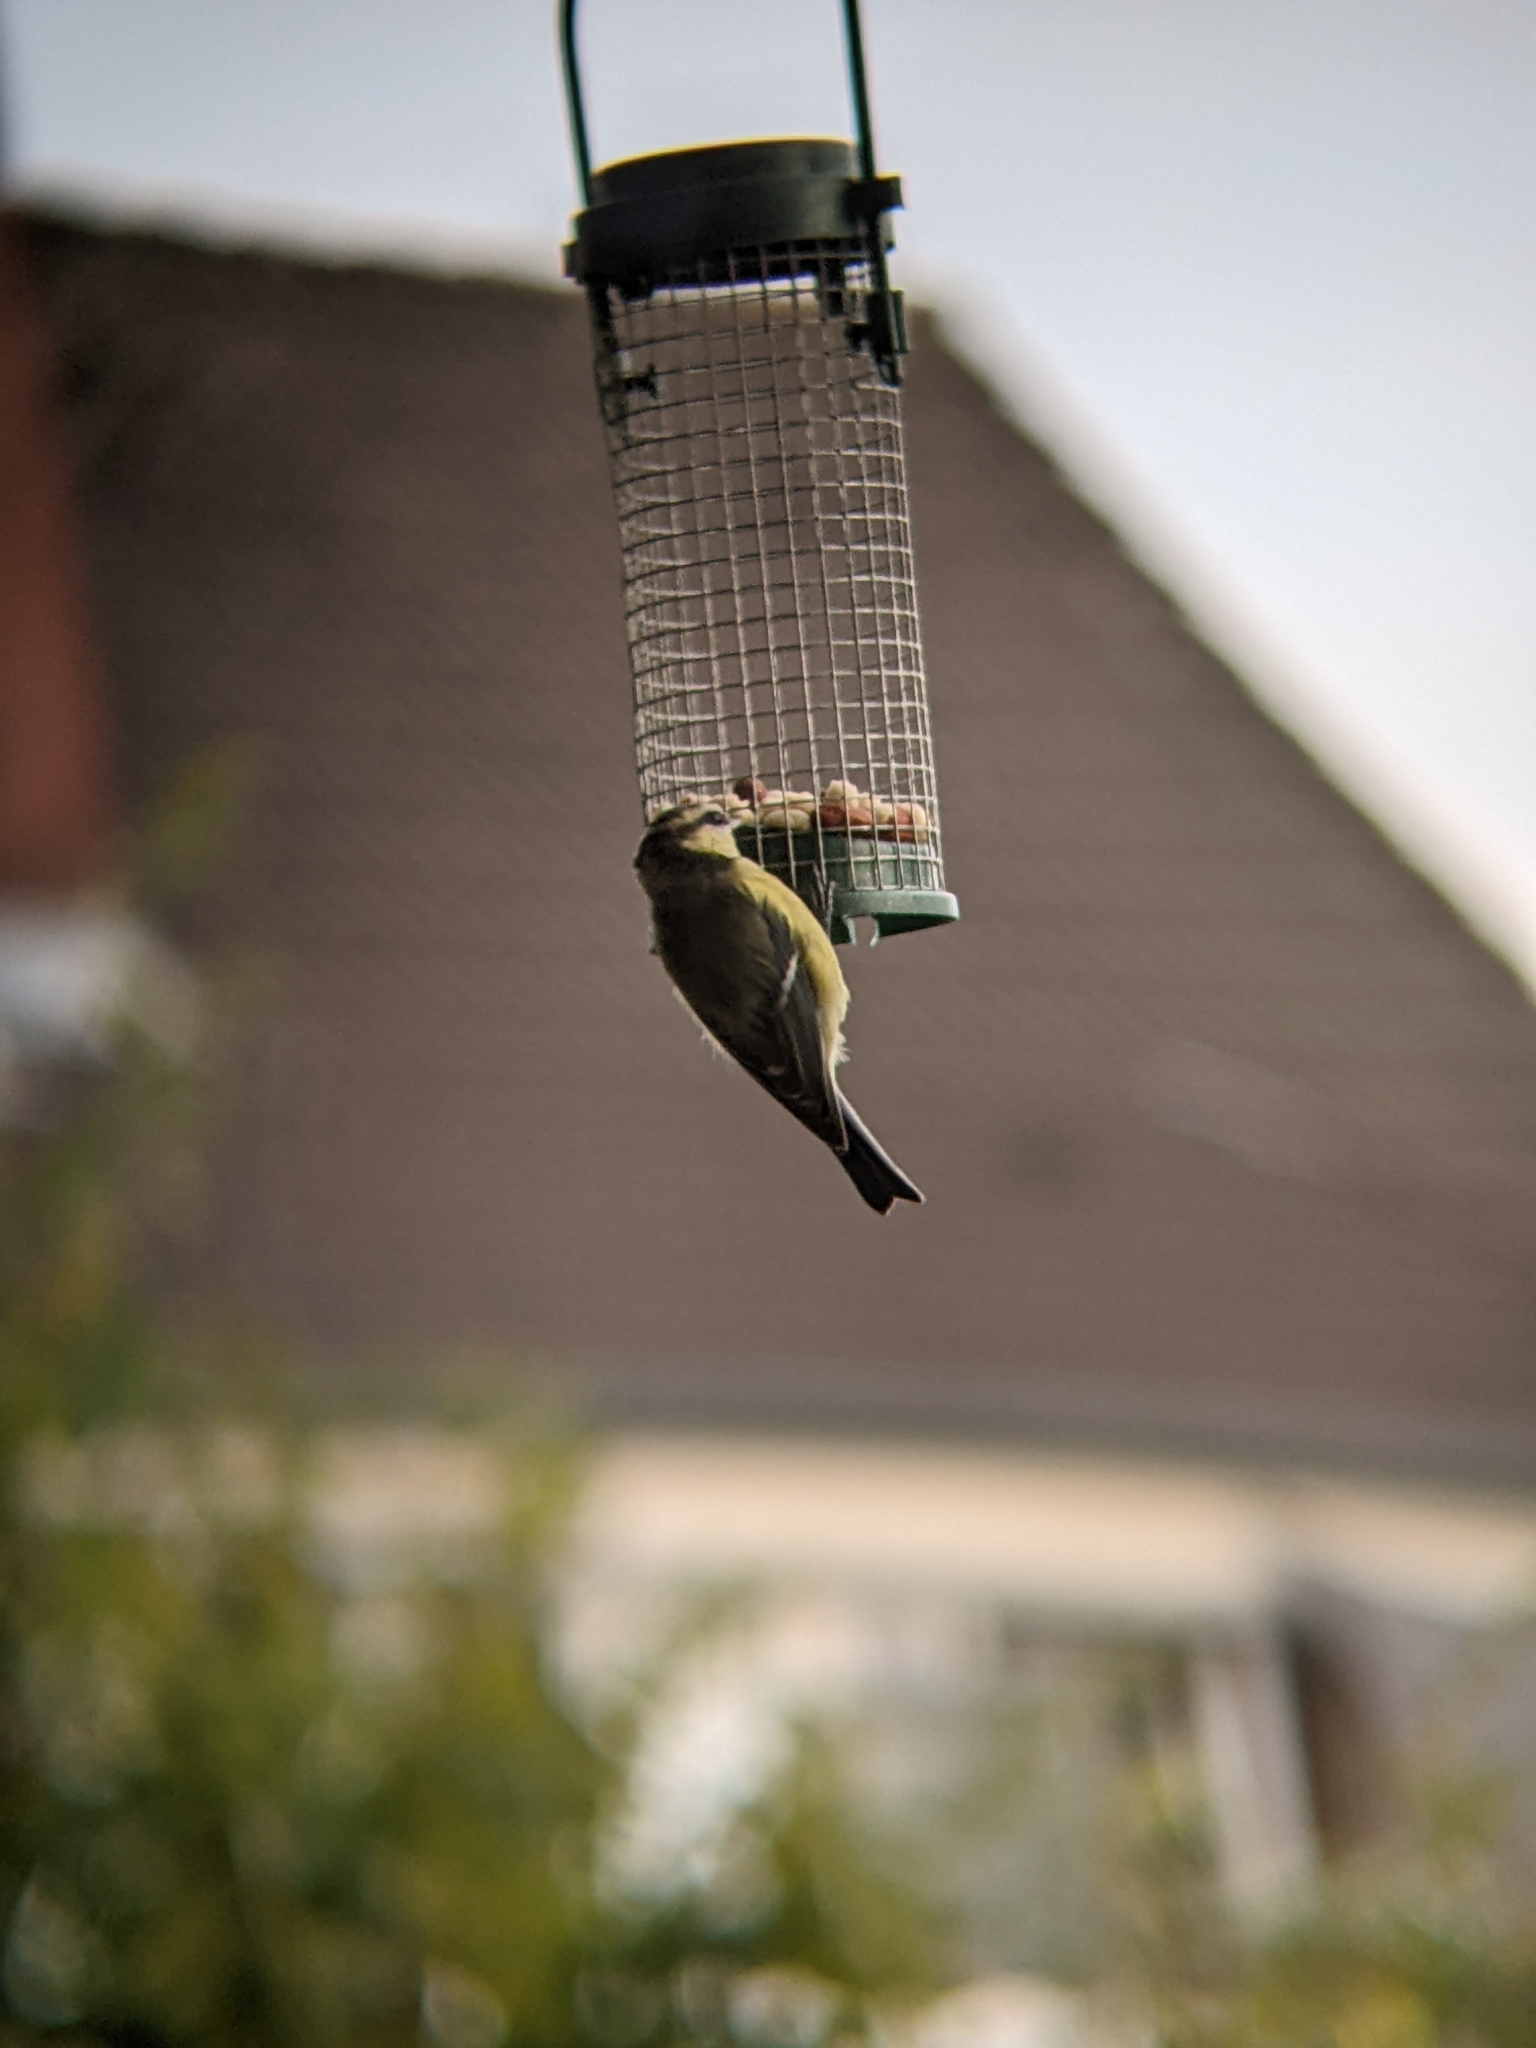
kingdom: Animalia
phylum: Chordata
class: Aves
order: Passeriformes
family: Paridae
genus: Cyanistes
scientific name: Cyanistes caeruleus
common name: Eurasian blue tit
